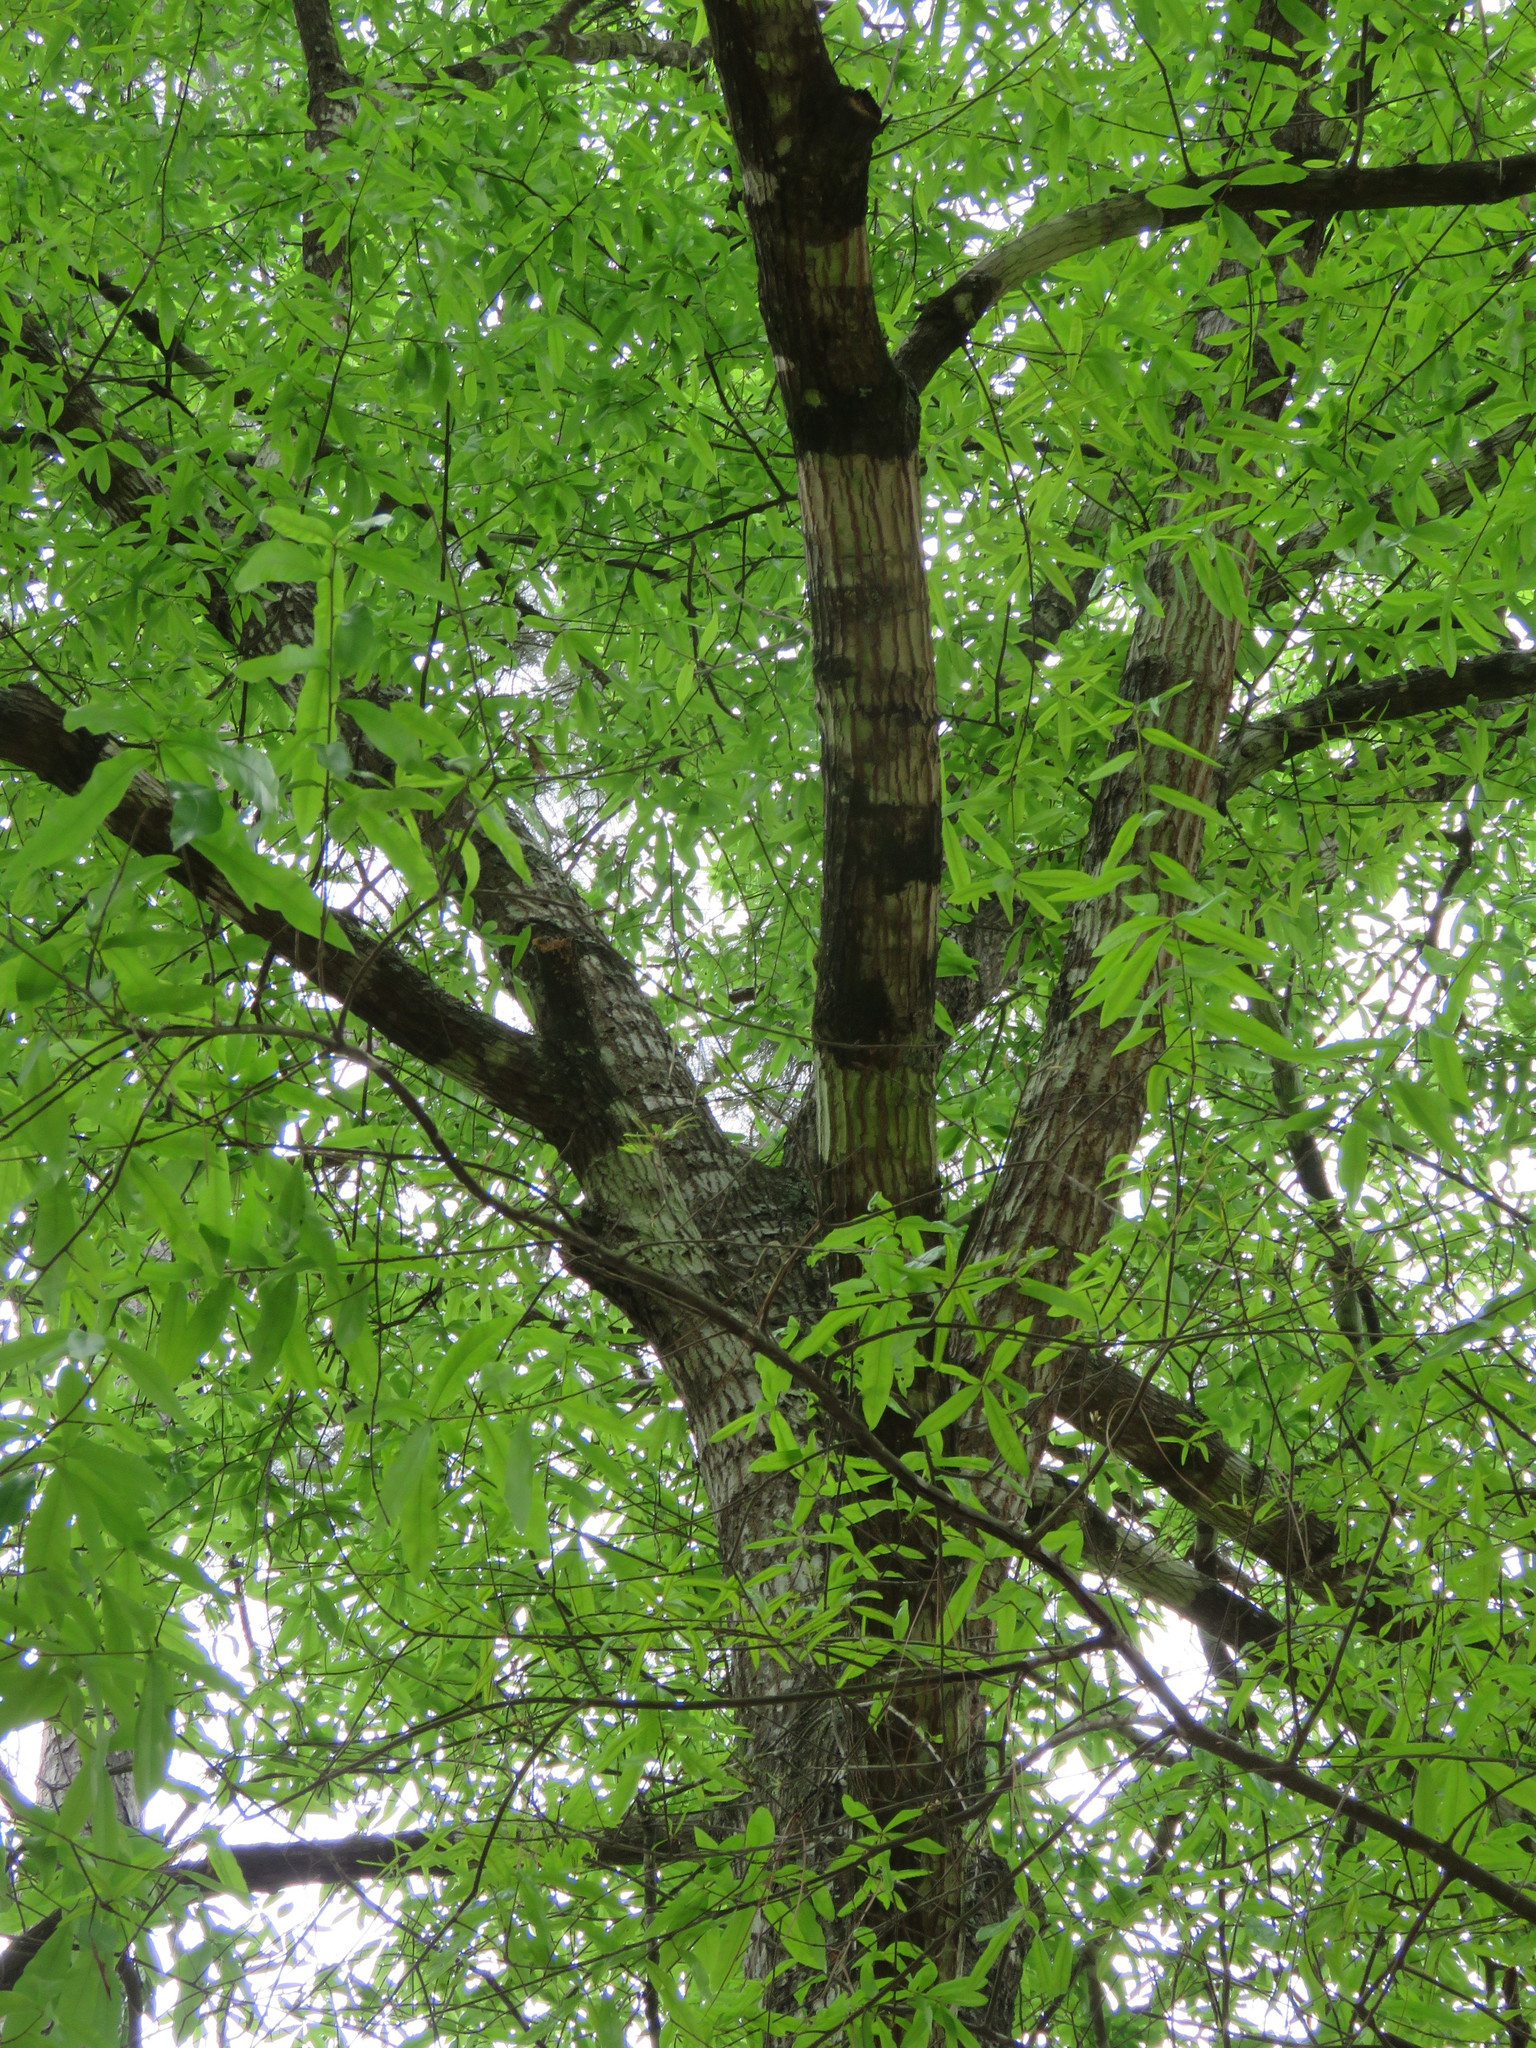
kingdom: Plantae
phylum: Tracheophyta
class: Magnoliopsida
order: Fagales
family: Fagaceae
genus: Quercus
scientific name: Quercus phellos
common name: Willow oak
